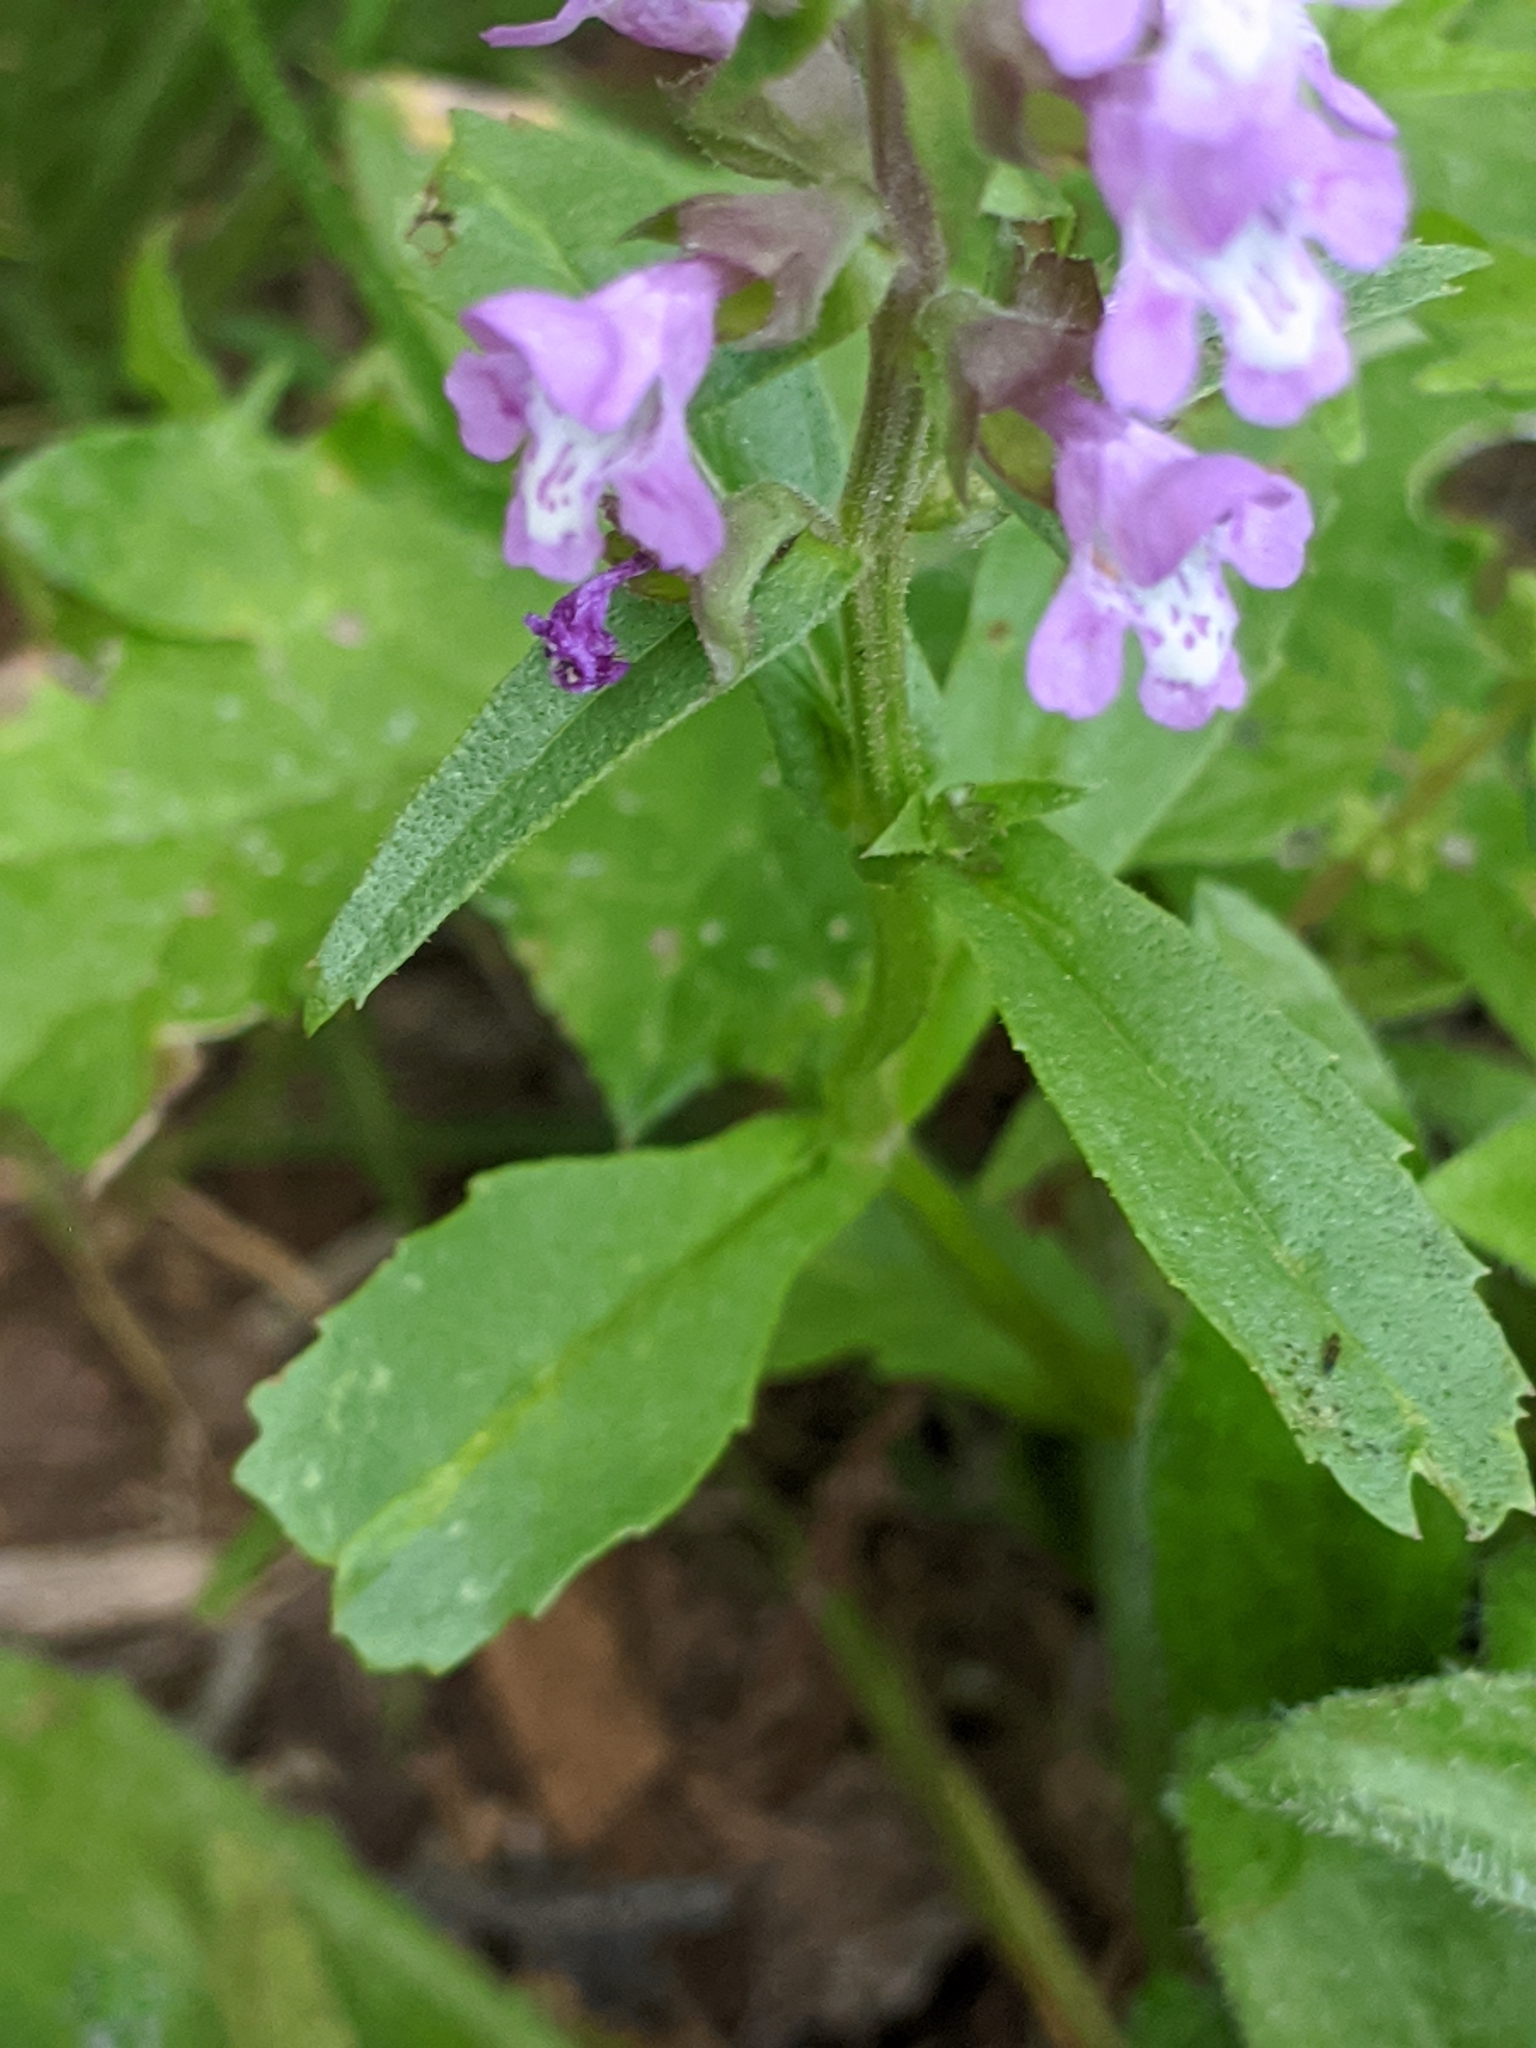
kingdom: Plantae
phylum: Tracheophyta
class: Magnoliopsida
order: Lamiales
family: Lamiaceae
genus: Warnockia
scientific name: Warnockia scutellarioides
